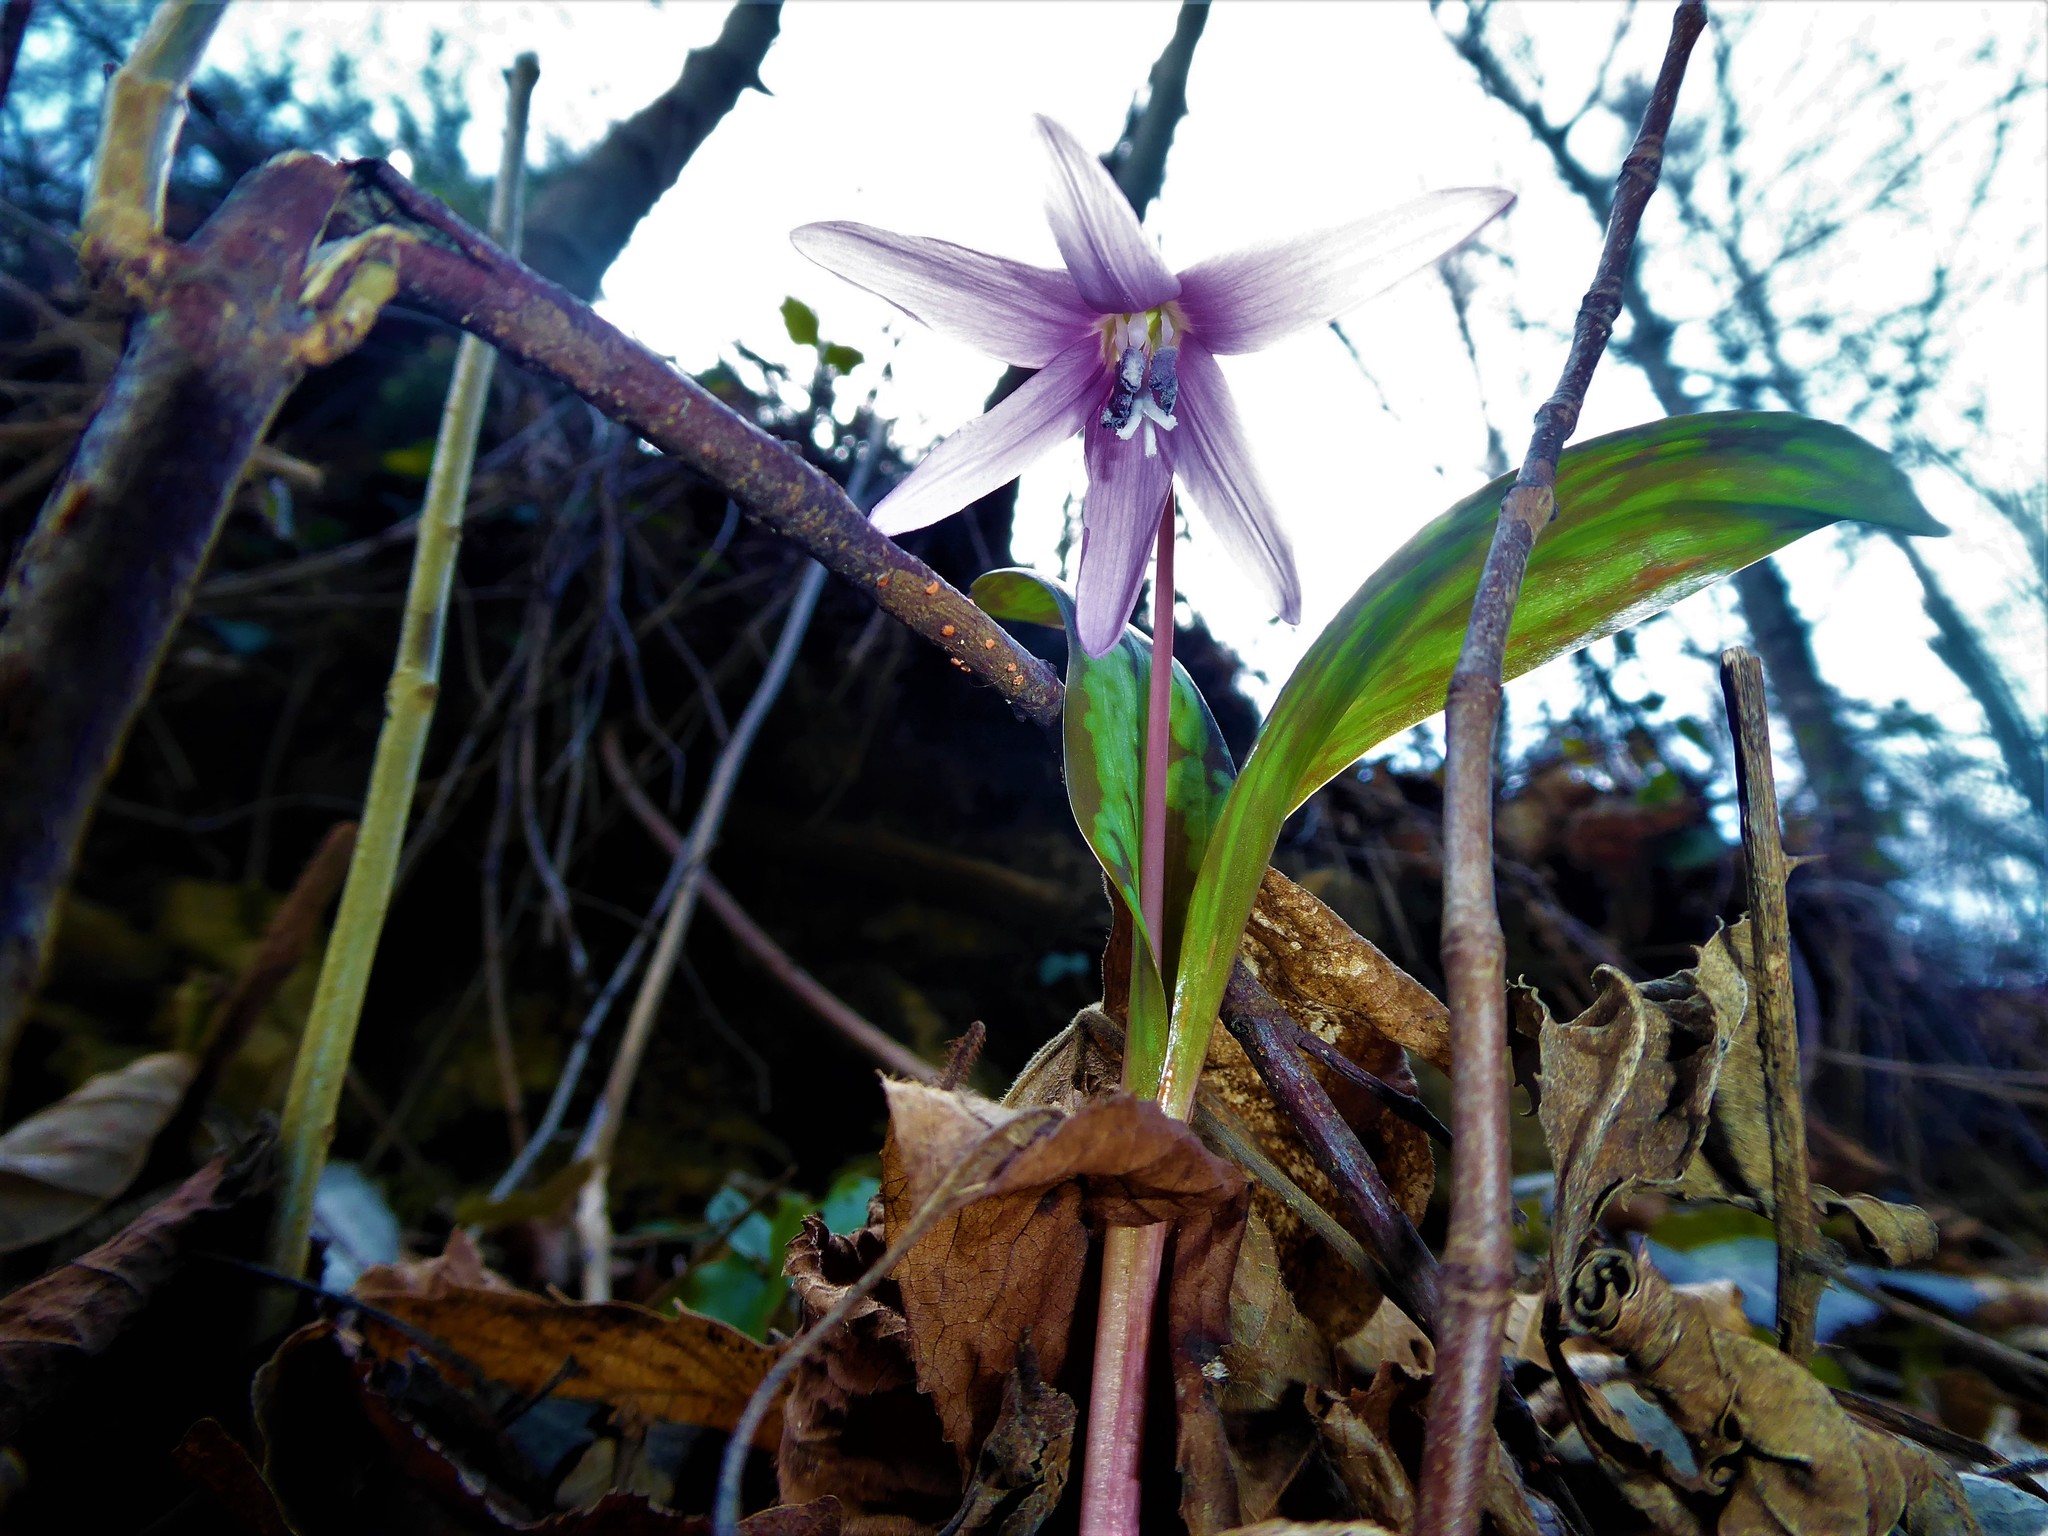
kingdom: Plantae
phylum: Tracheophyta
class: Liliopsida
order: Liliales
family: Liliaceae
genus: Erythronium
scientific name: Erythronium dens-canis
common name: Dog's-tooth-violet
